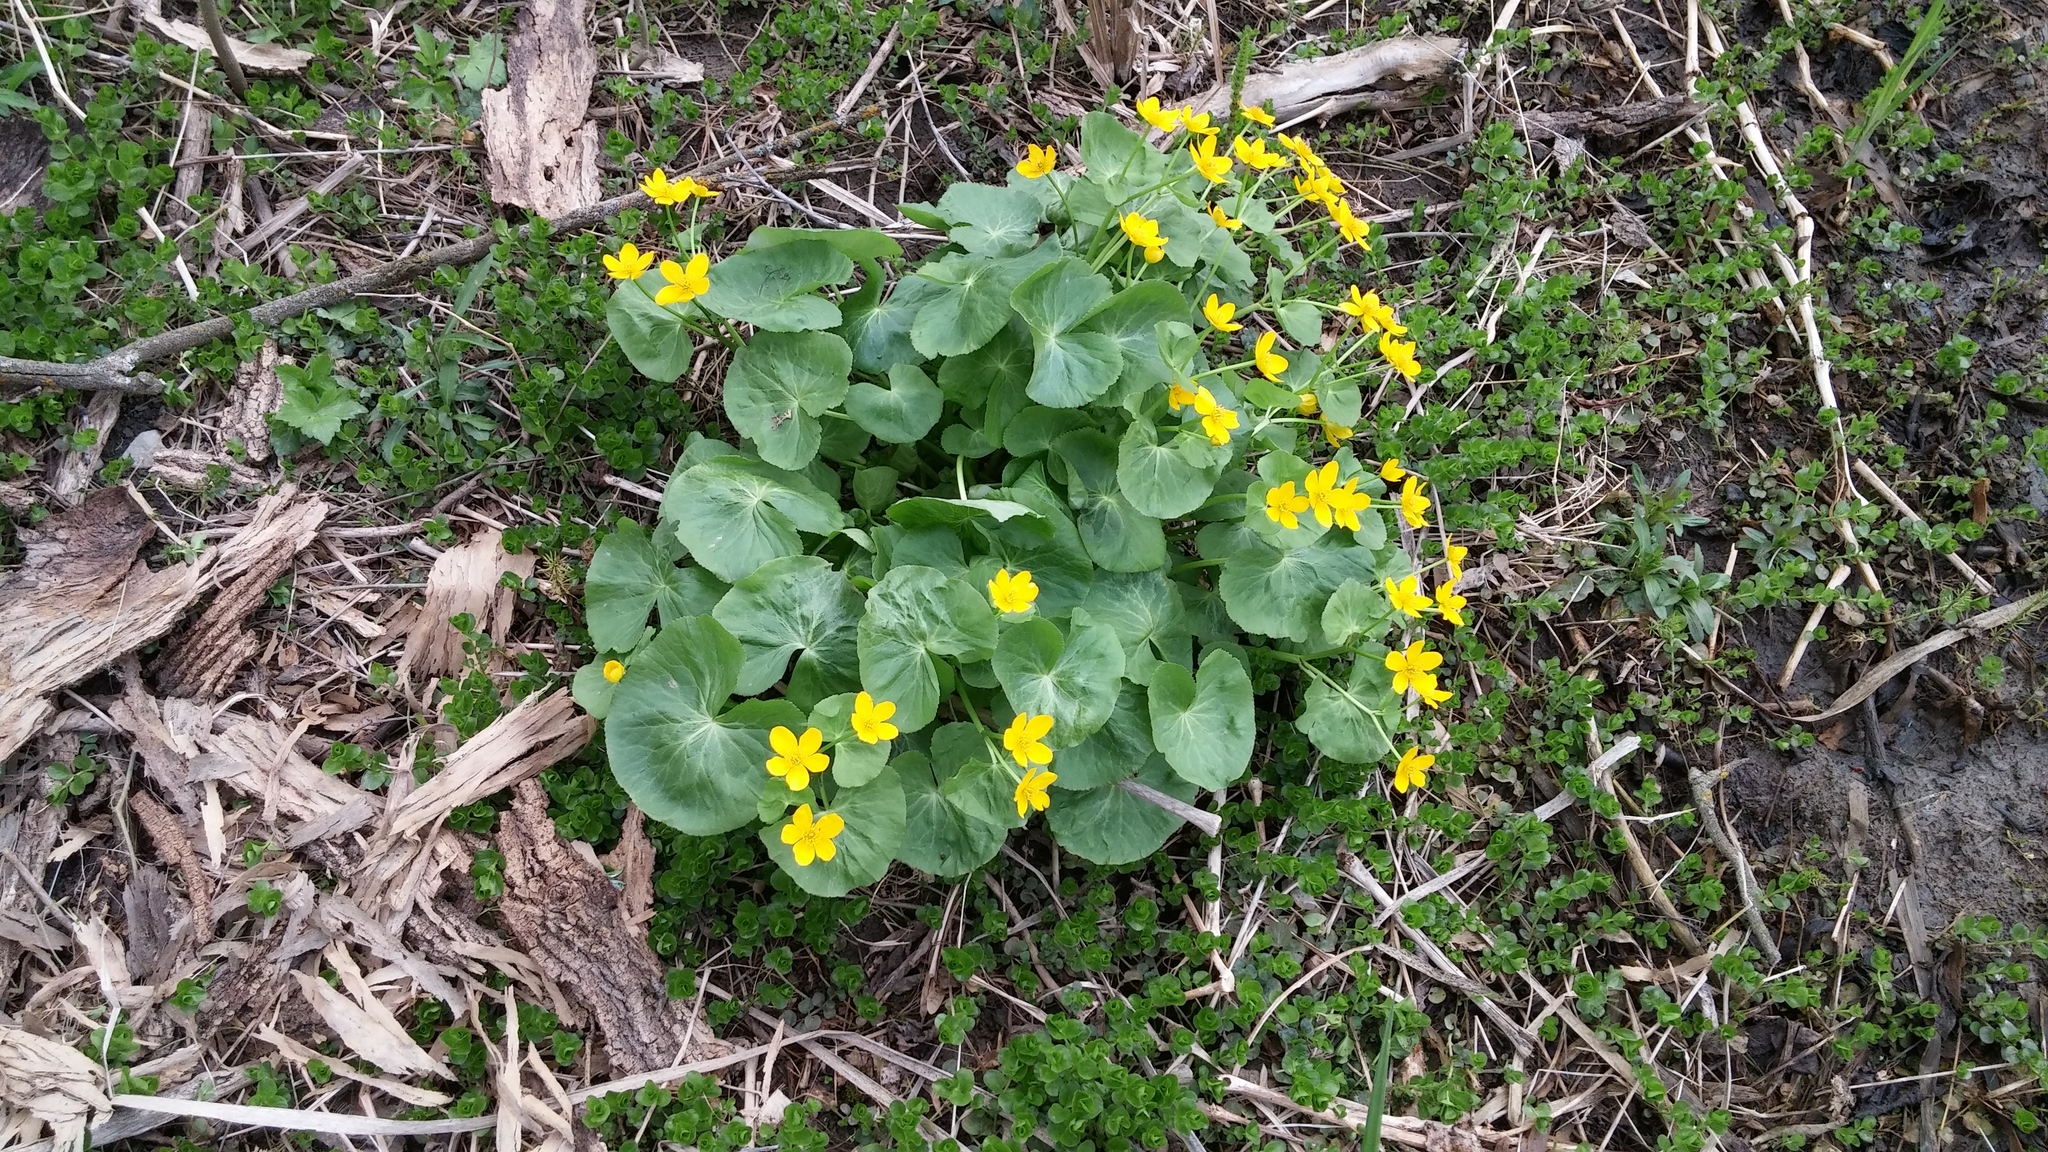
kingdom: Plantae
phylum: Tracheophyta
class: Magnoliopsida
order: Ranunculales
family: Ranunculaceae
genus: Caltha
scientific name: Caltha palustris
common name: Marsh marigold
